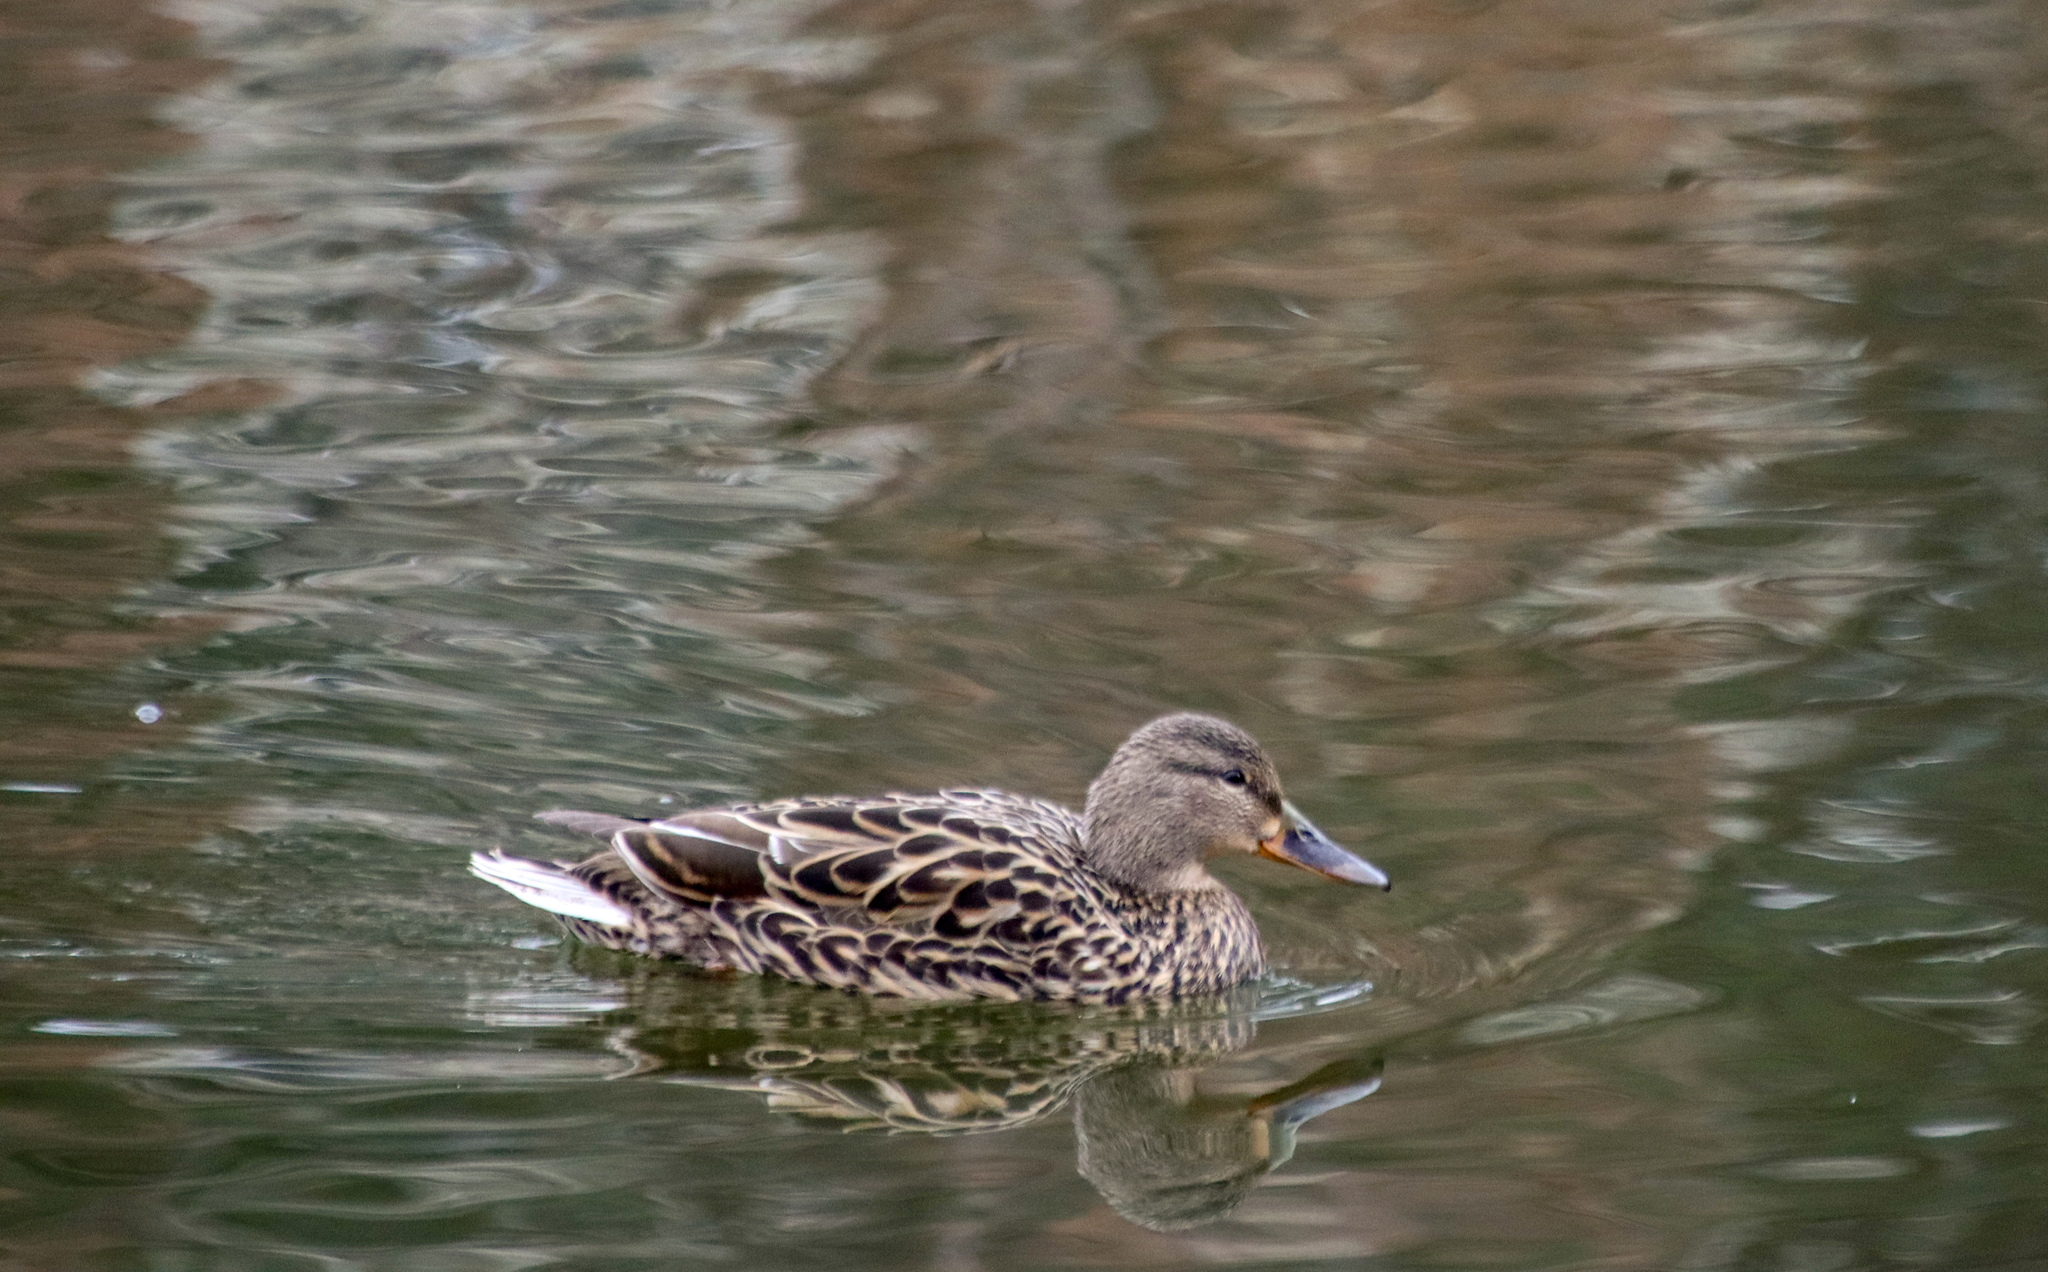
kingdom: Animalia
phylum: Chordata
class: Aves
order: Anseriformes
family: Anatidae
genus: Anas
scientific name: Anas platyrhynchos
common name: Mallard
